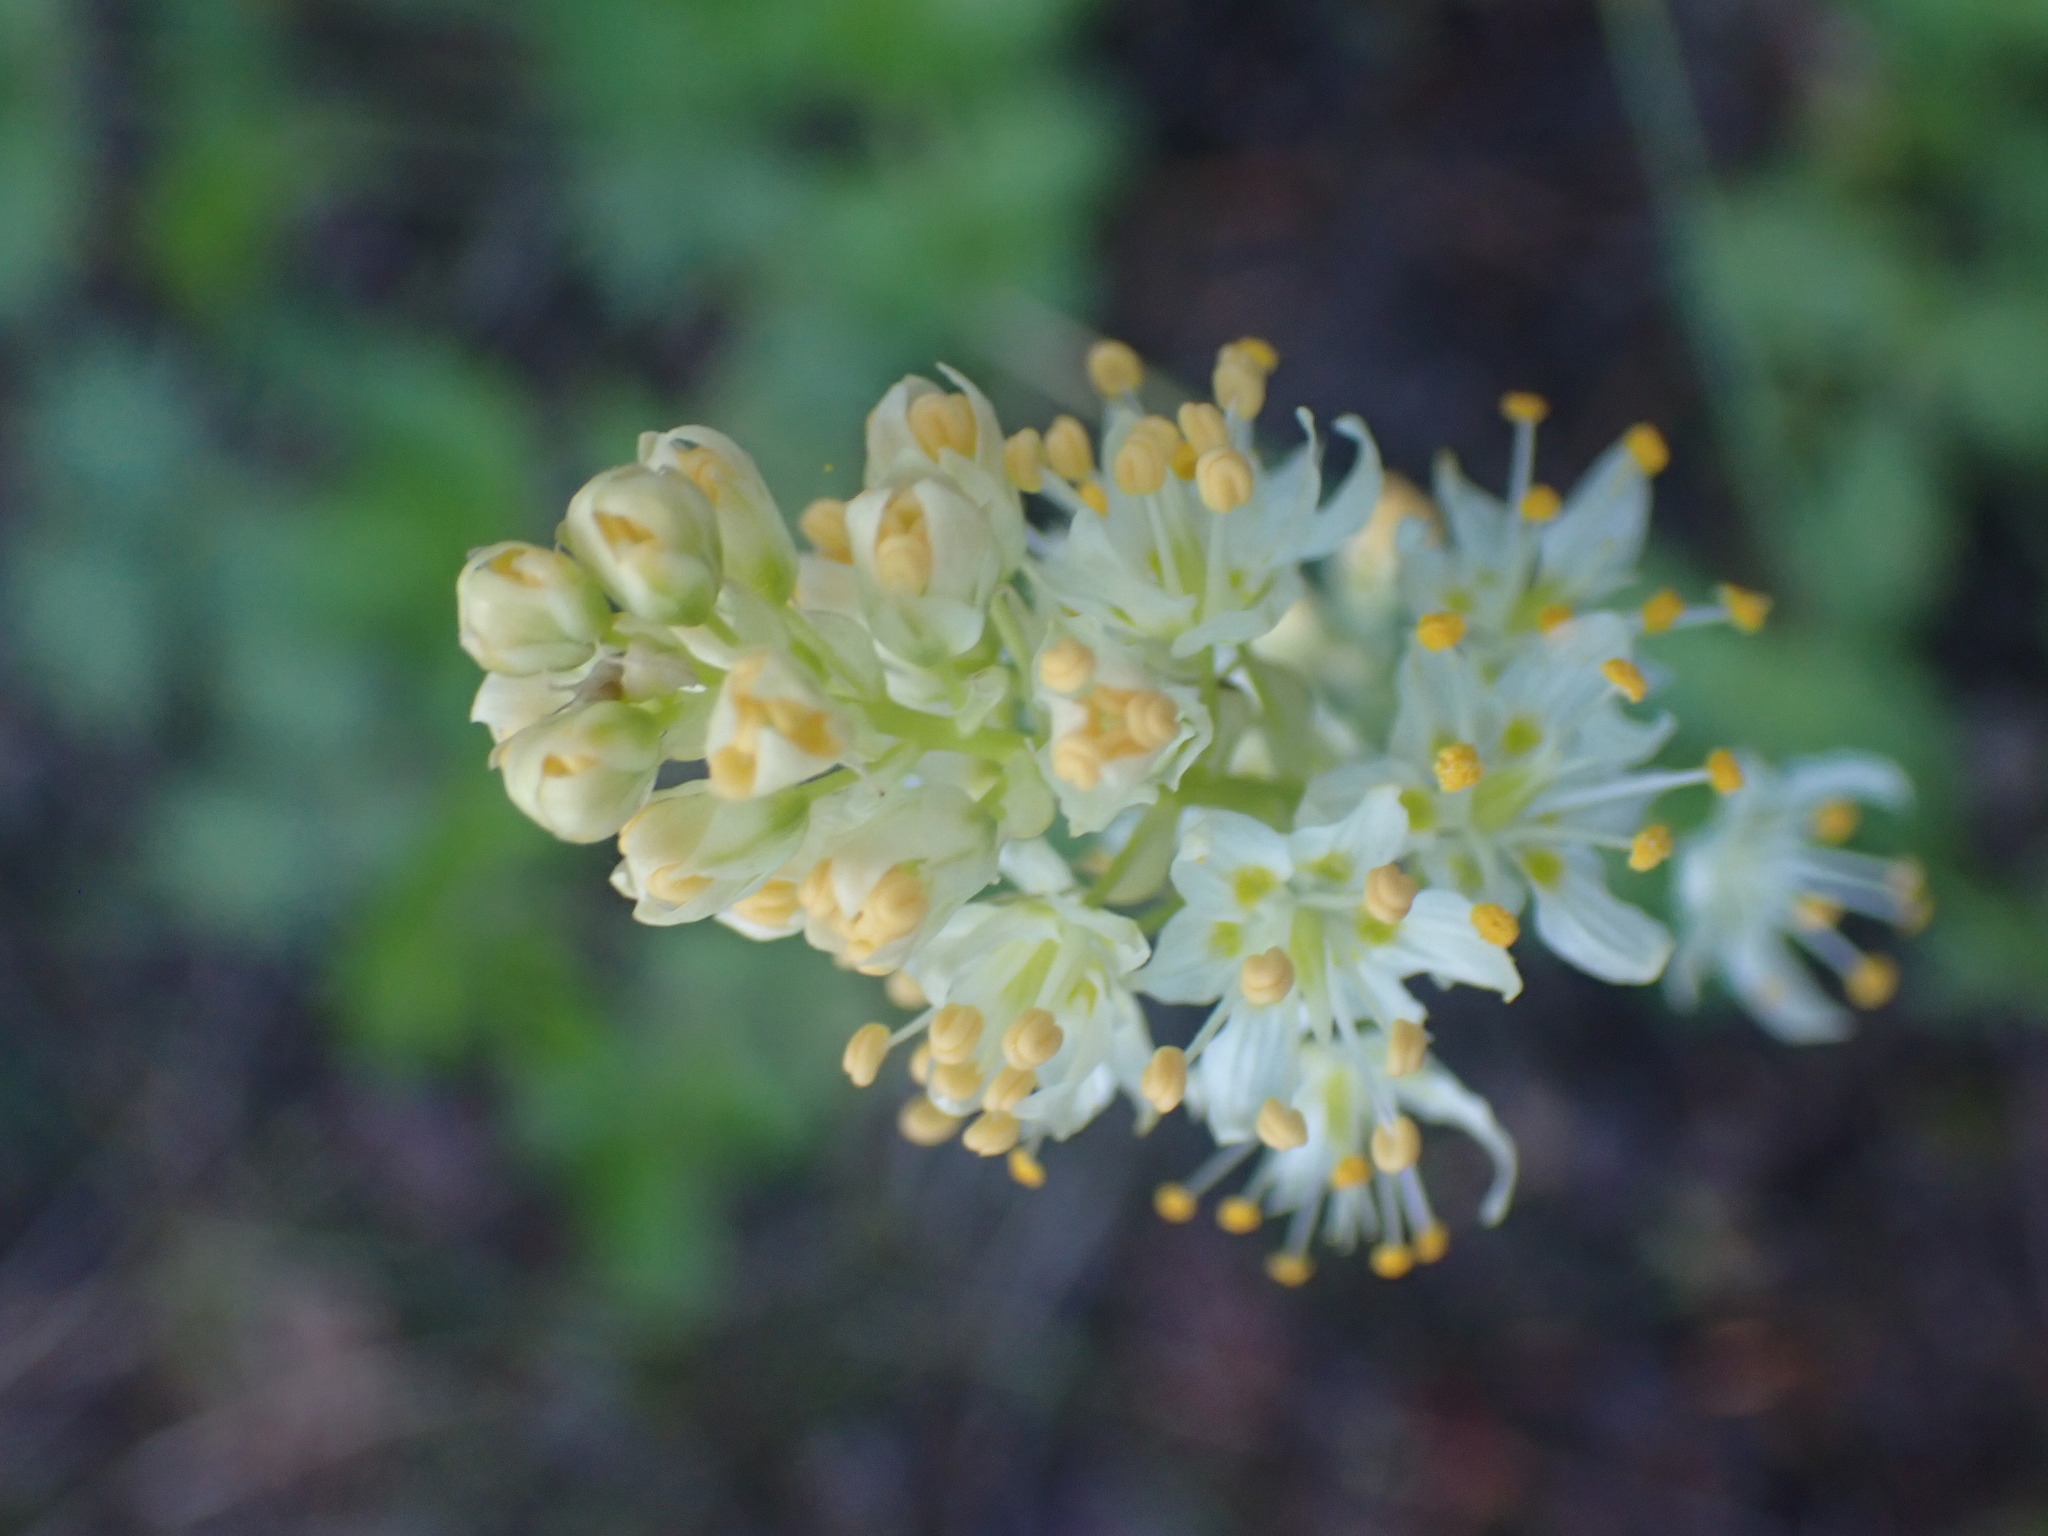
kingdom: Plantae
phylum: Tracheophyta
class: Liliopsida
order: Liliales
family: Melanthiaceae
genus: Toxicoscordion
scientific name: Toxicoscordion venenosum
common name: Meadow death camas
